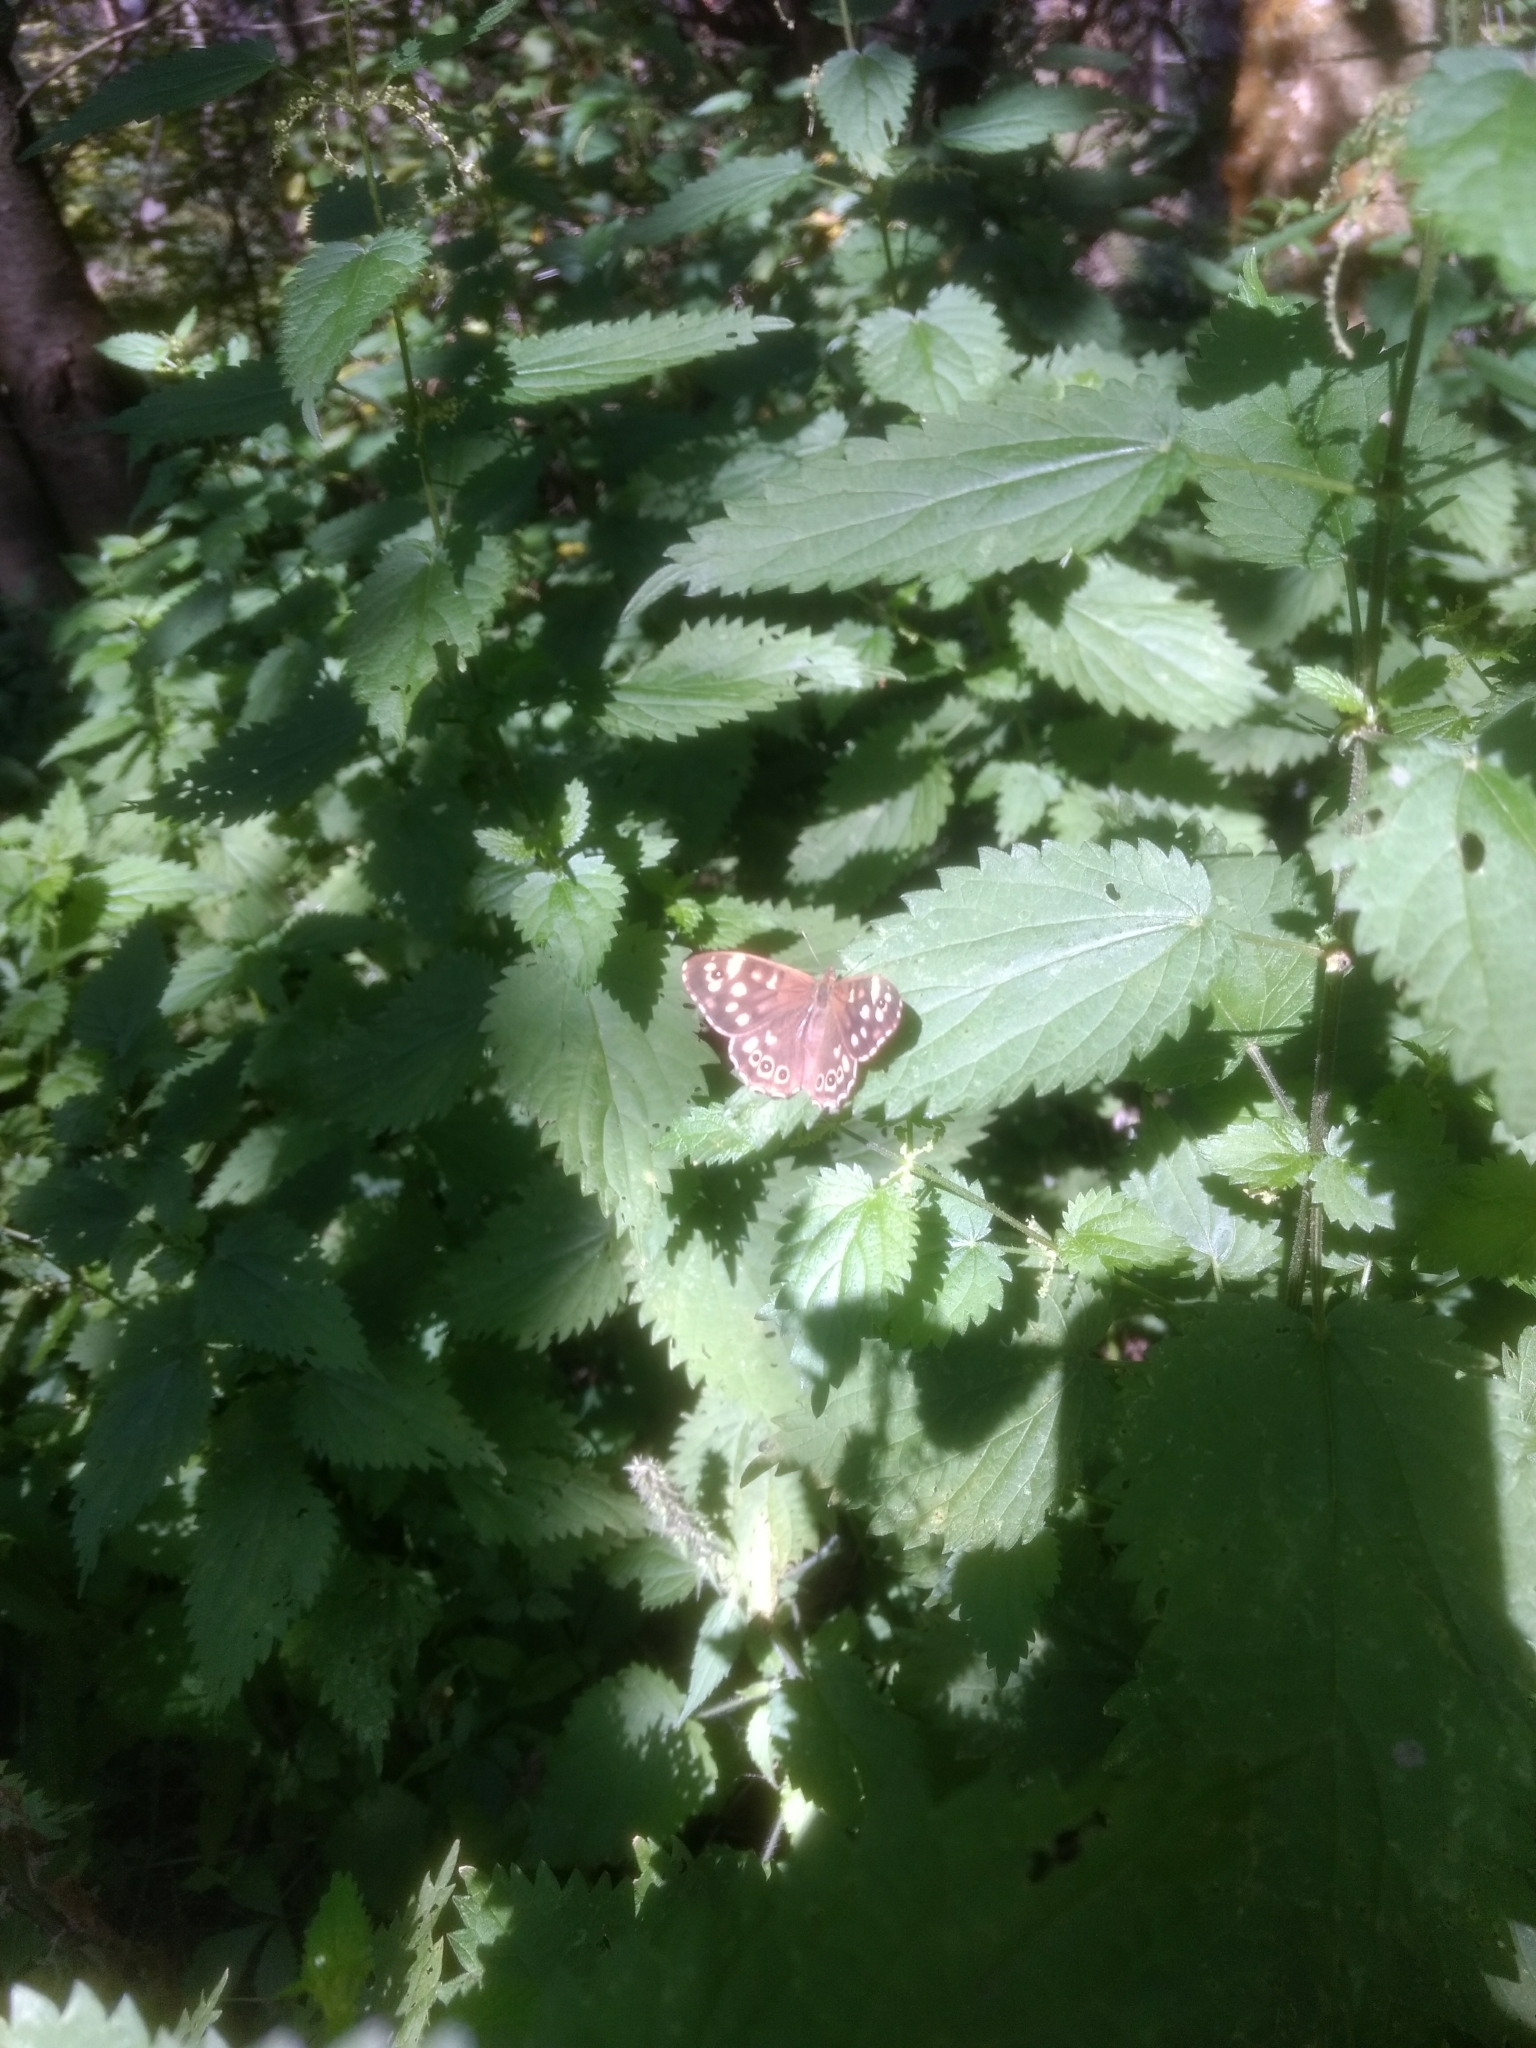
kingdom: Animalia
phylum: Arthropoda
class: Insecta
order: Lepidoptera
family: Nymphalidae
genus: Pararge
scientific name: Pararge aegeria
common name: Speckled wood
